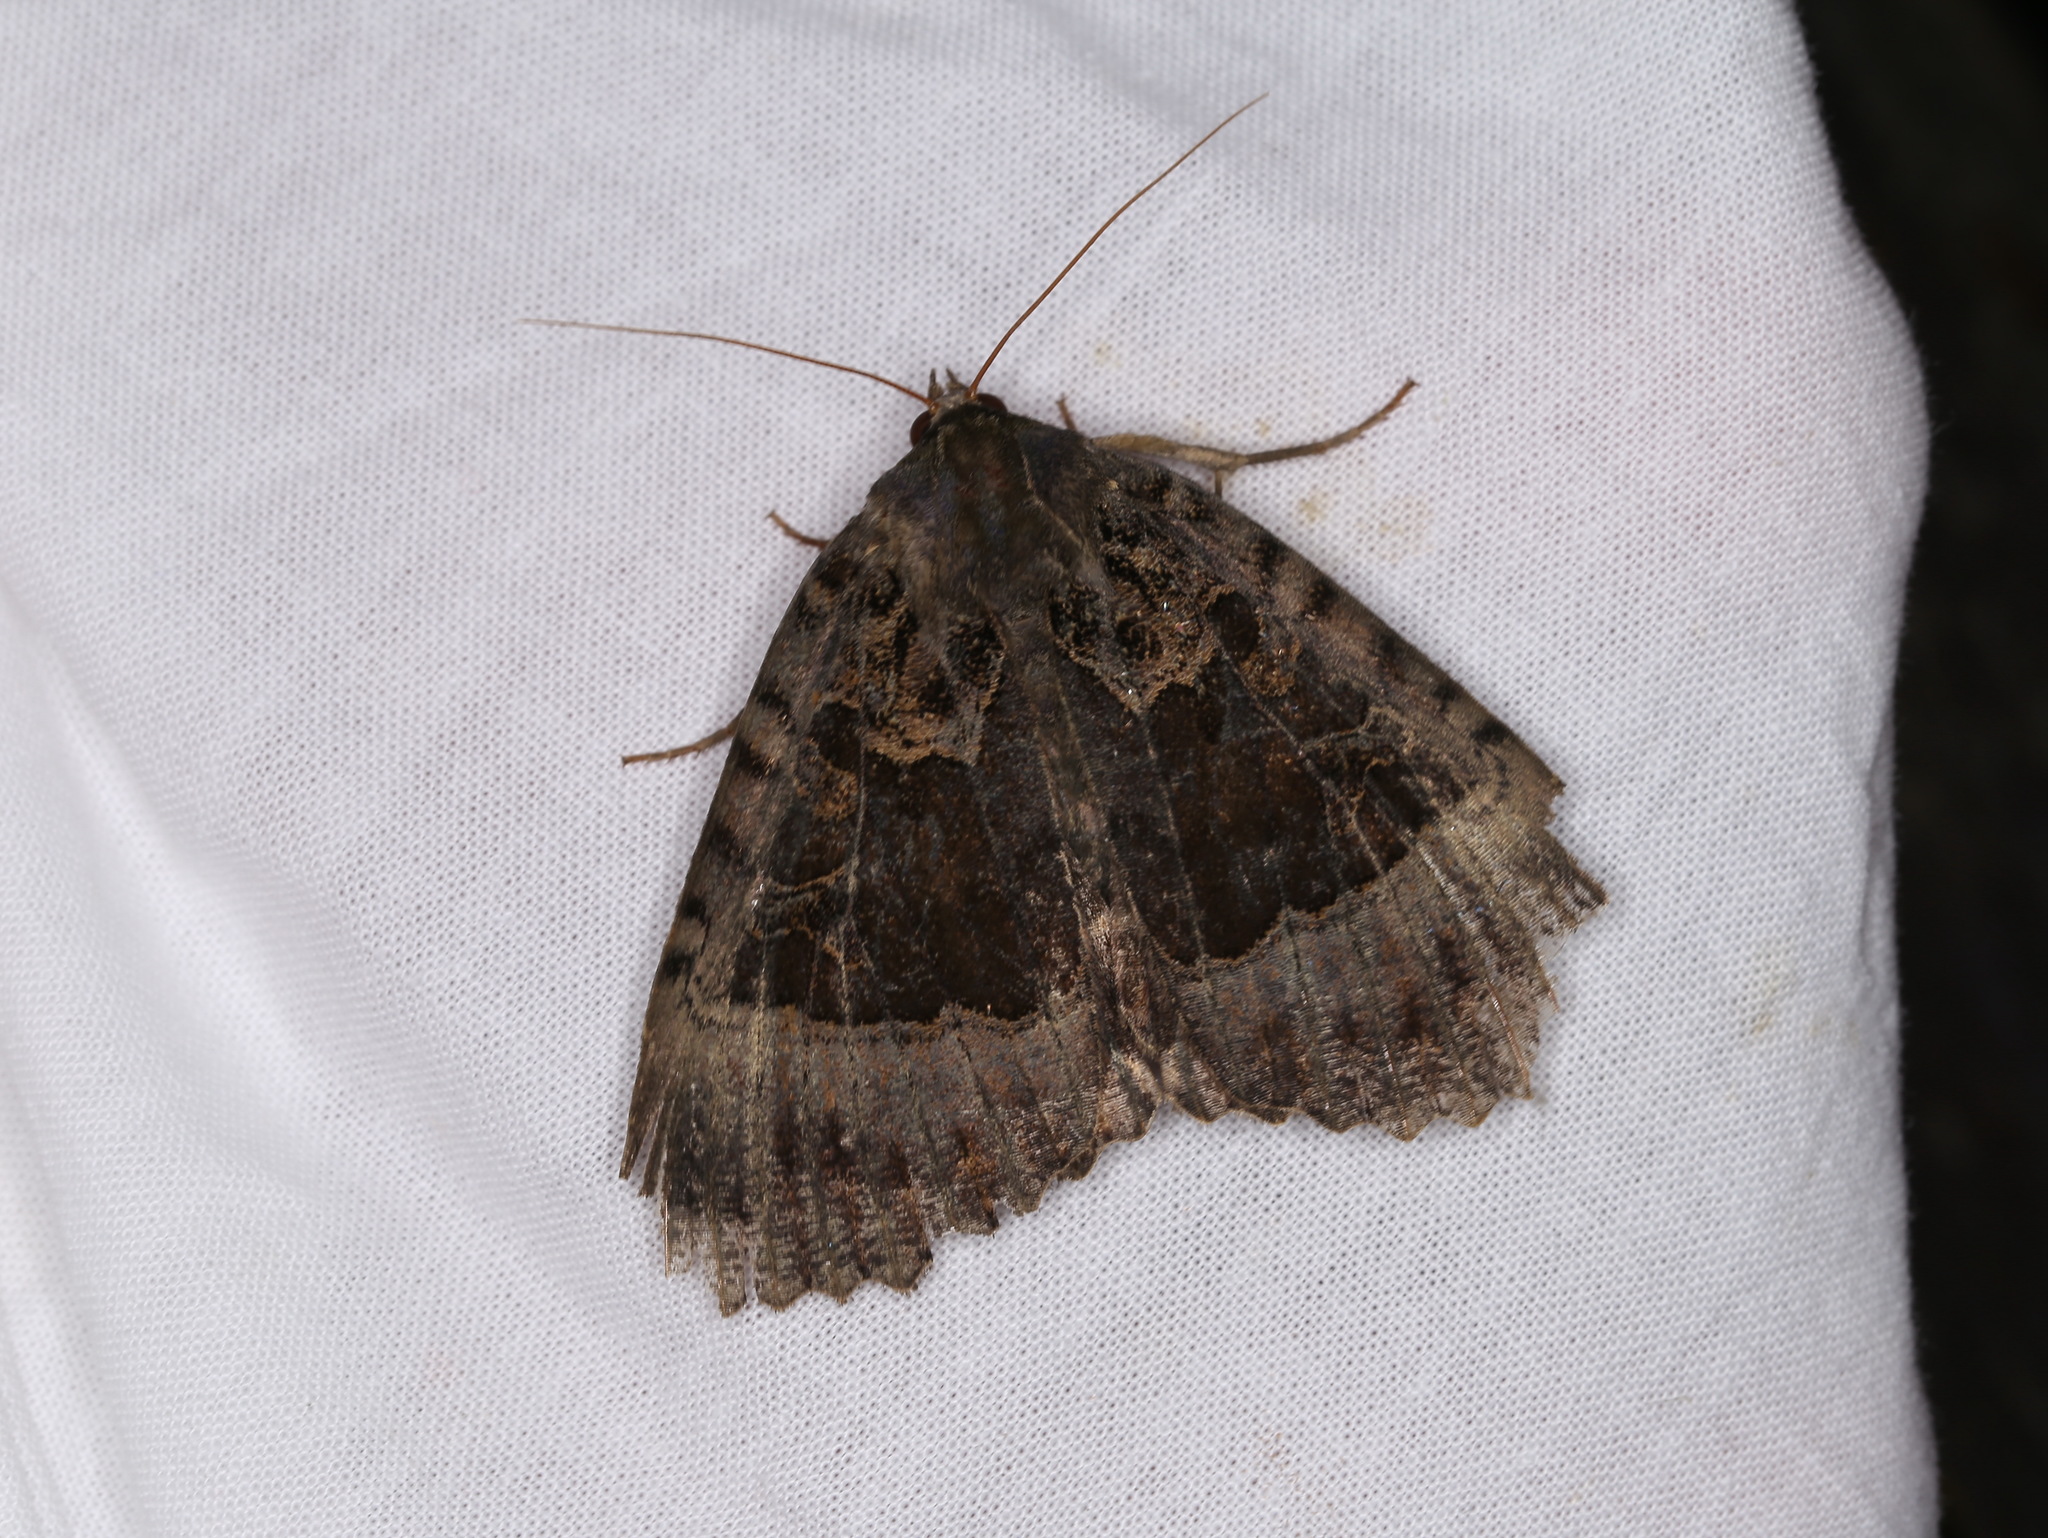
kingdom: Animalia
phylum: Arthropoda
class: Insecta
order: Lepidoptera
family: Noctuidae
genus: Mormo
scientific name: Mormo maura
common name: Old lady
